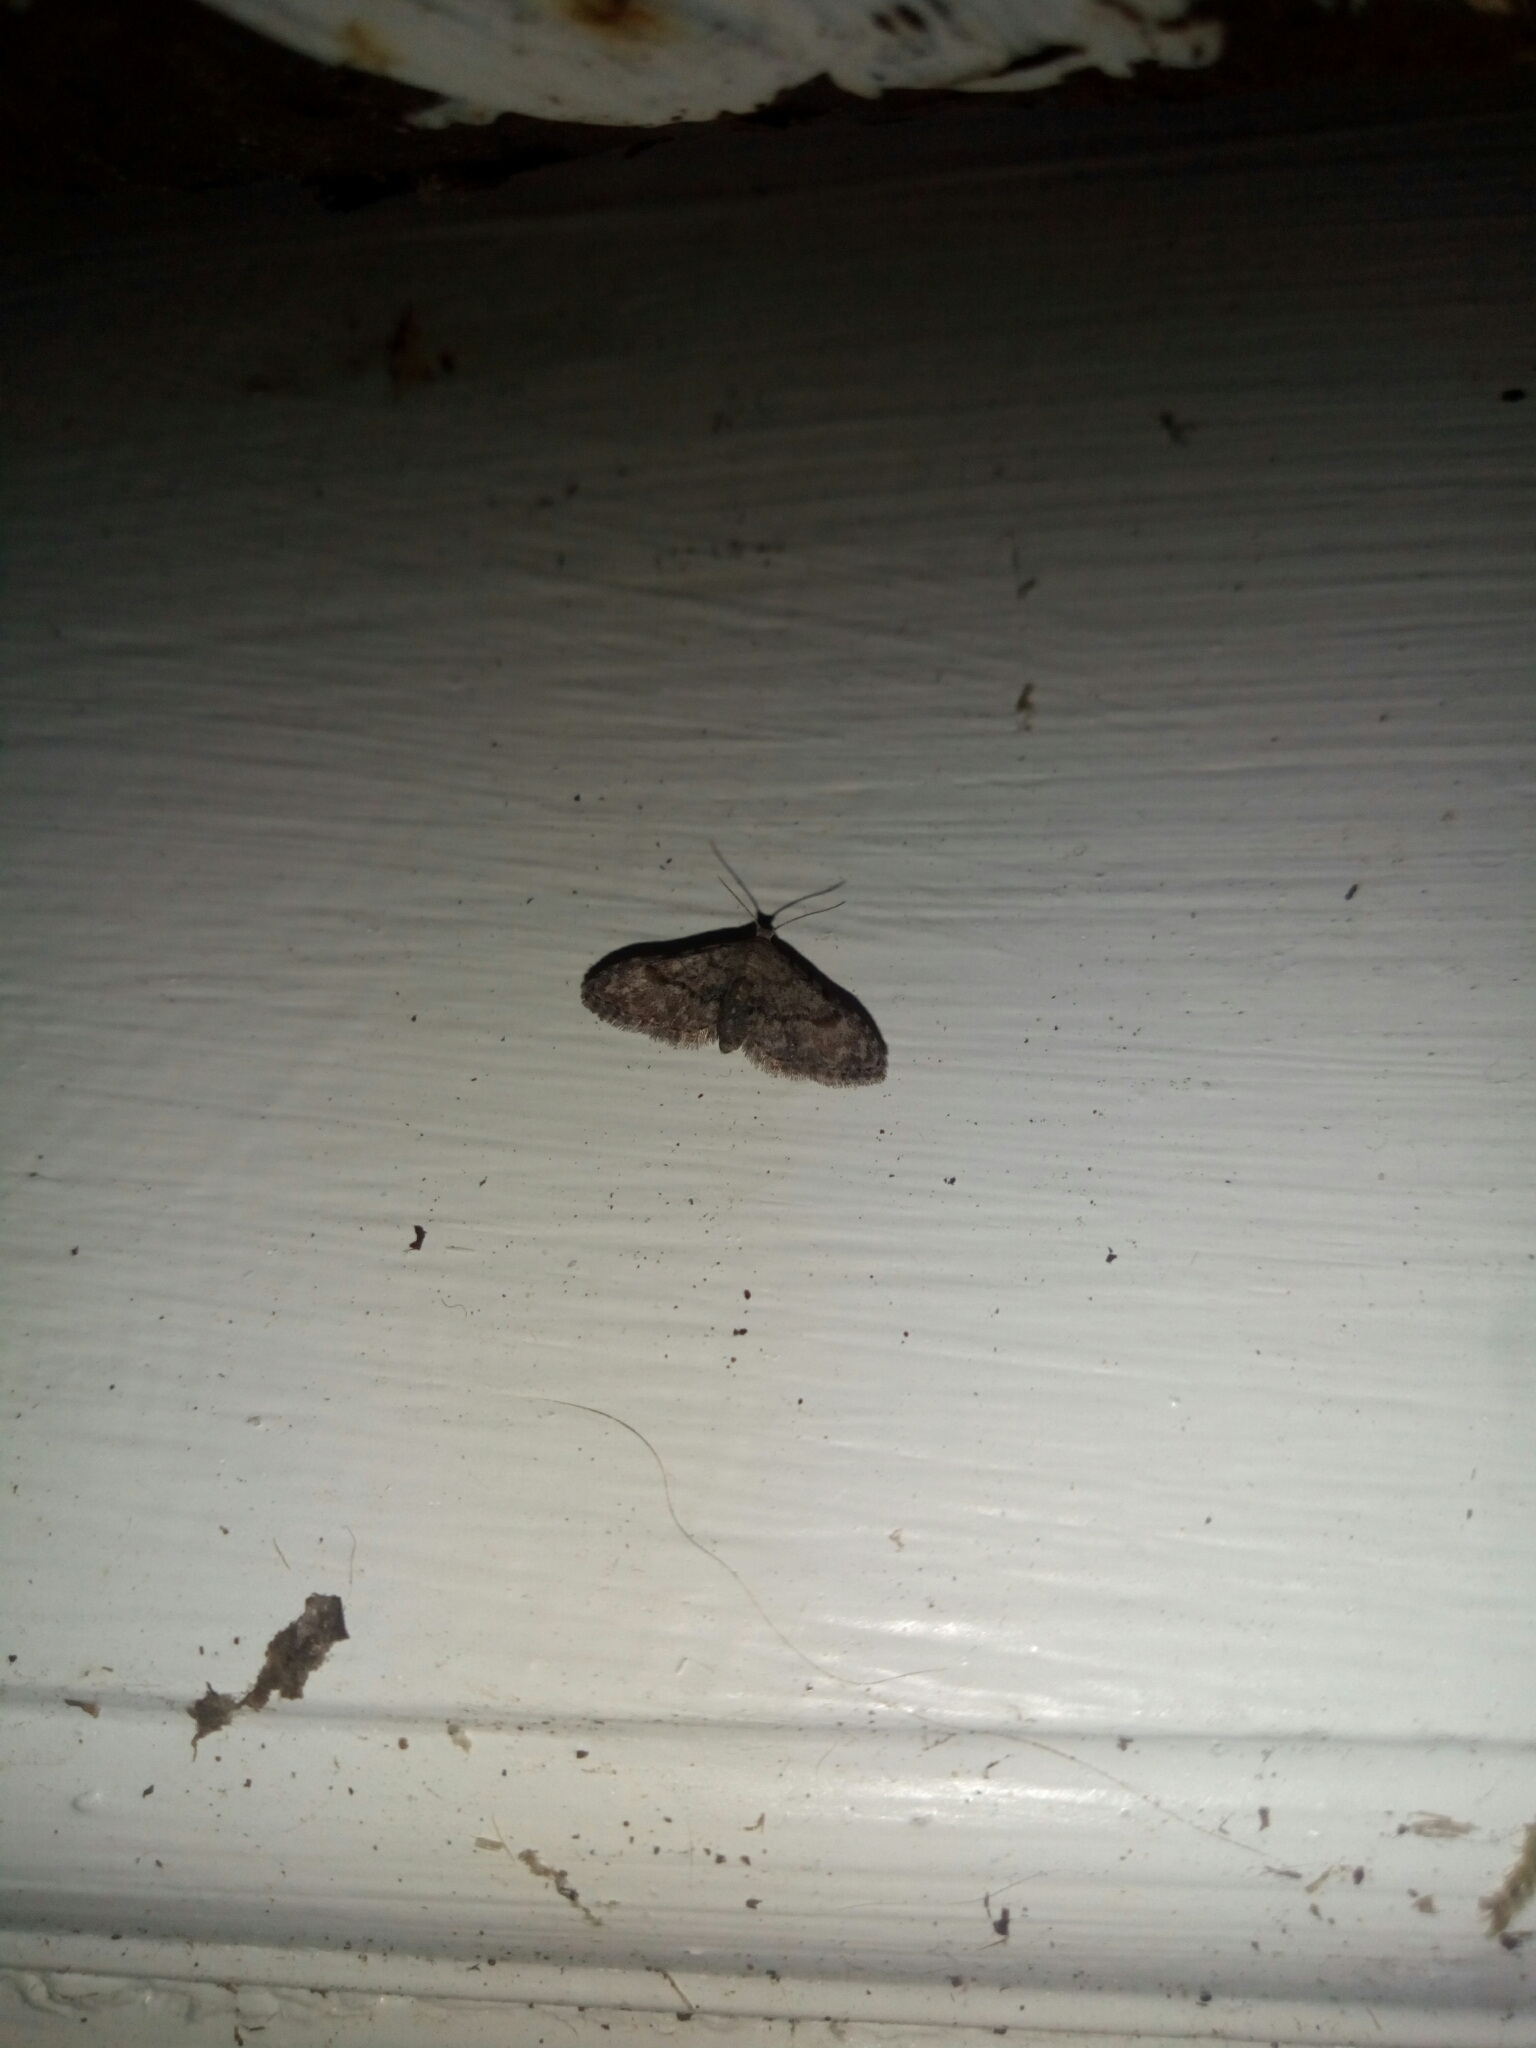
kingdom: Animalia
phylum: Arthropoda
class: Insecta
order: Lepidoptera
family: Erebidae
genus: Sigela
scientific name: Sigela brauneata
